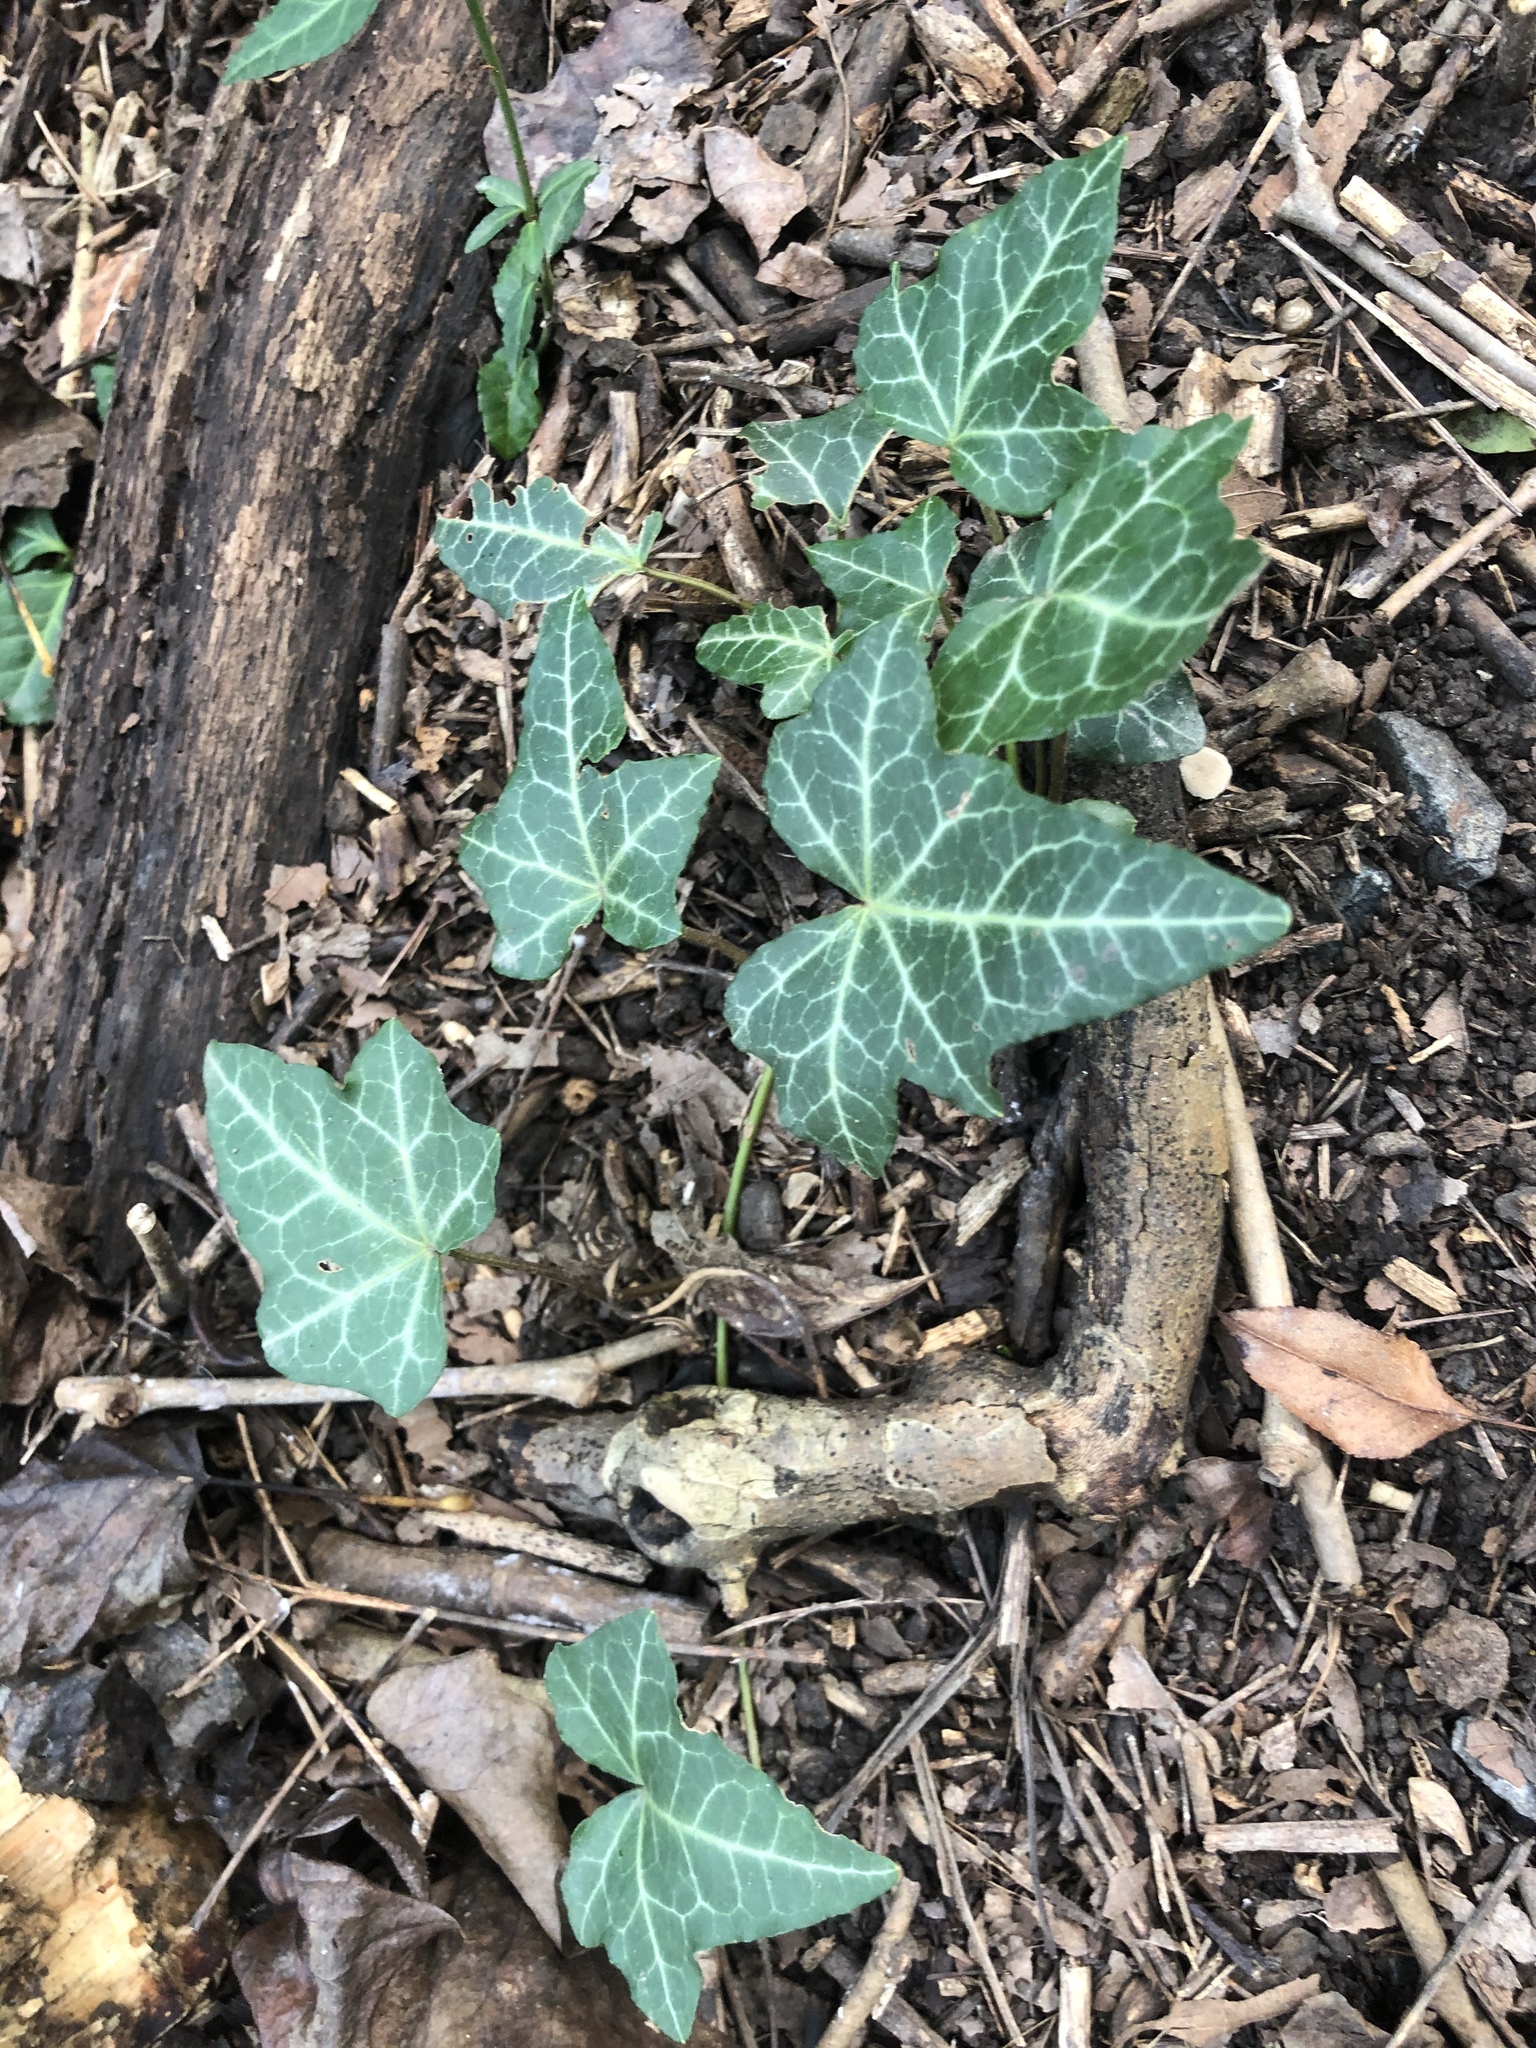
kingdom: Plantae
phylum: Tracheophyta
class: Magnoliopsida
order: Apiales
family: Araliaceae
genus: Hedera
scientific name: Hedera helix
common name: Ivy
